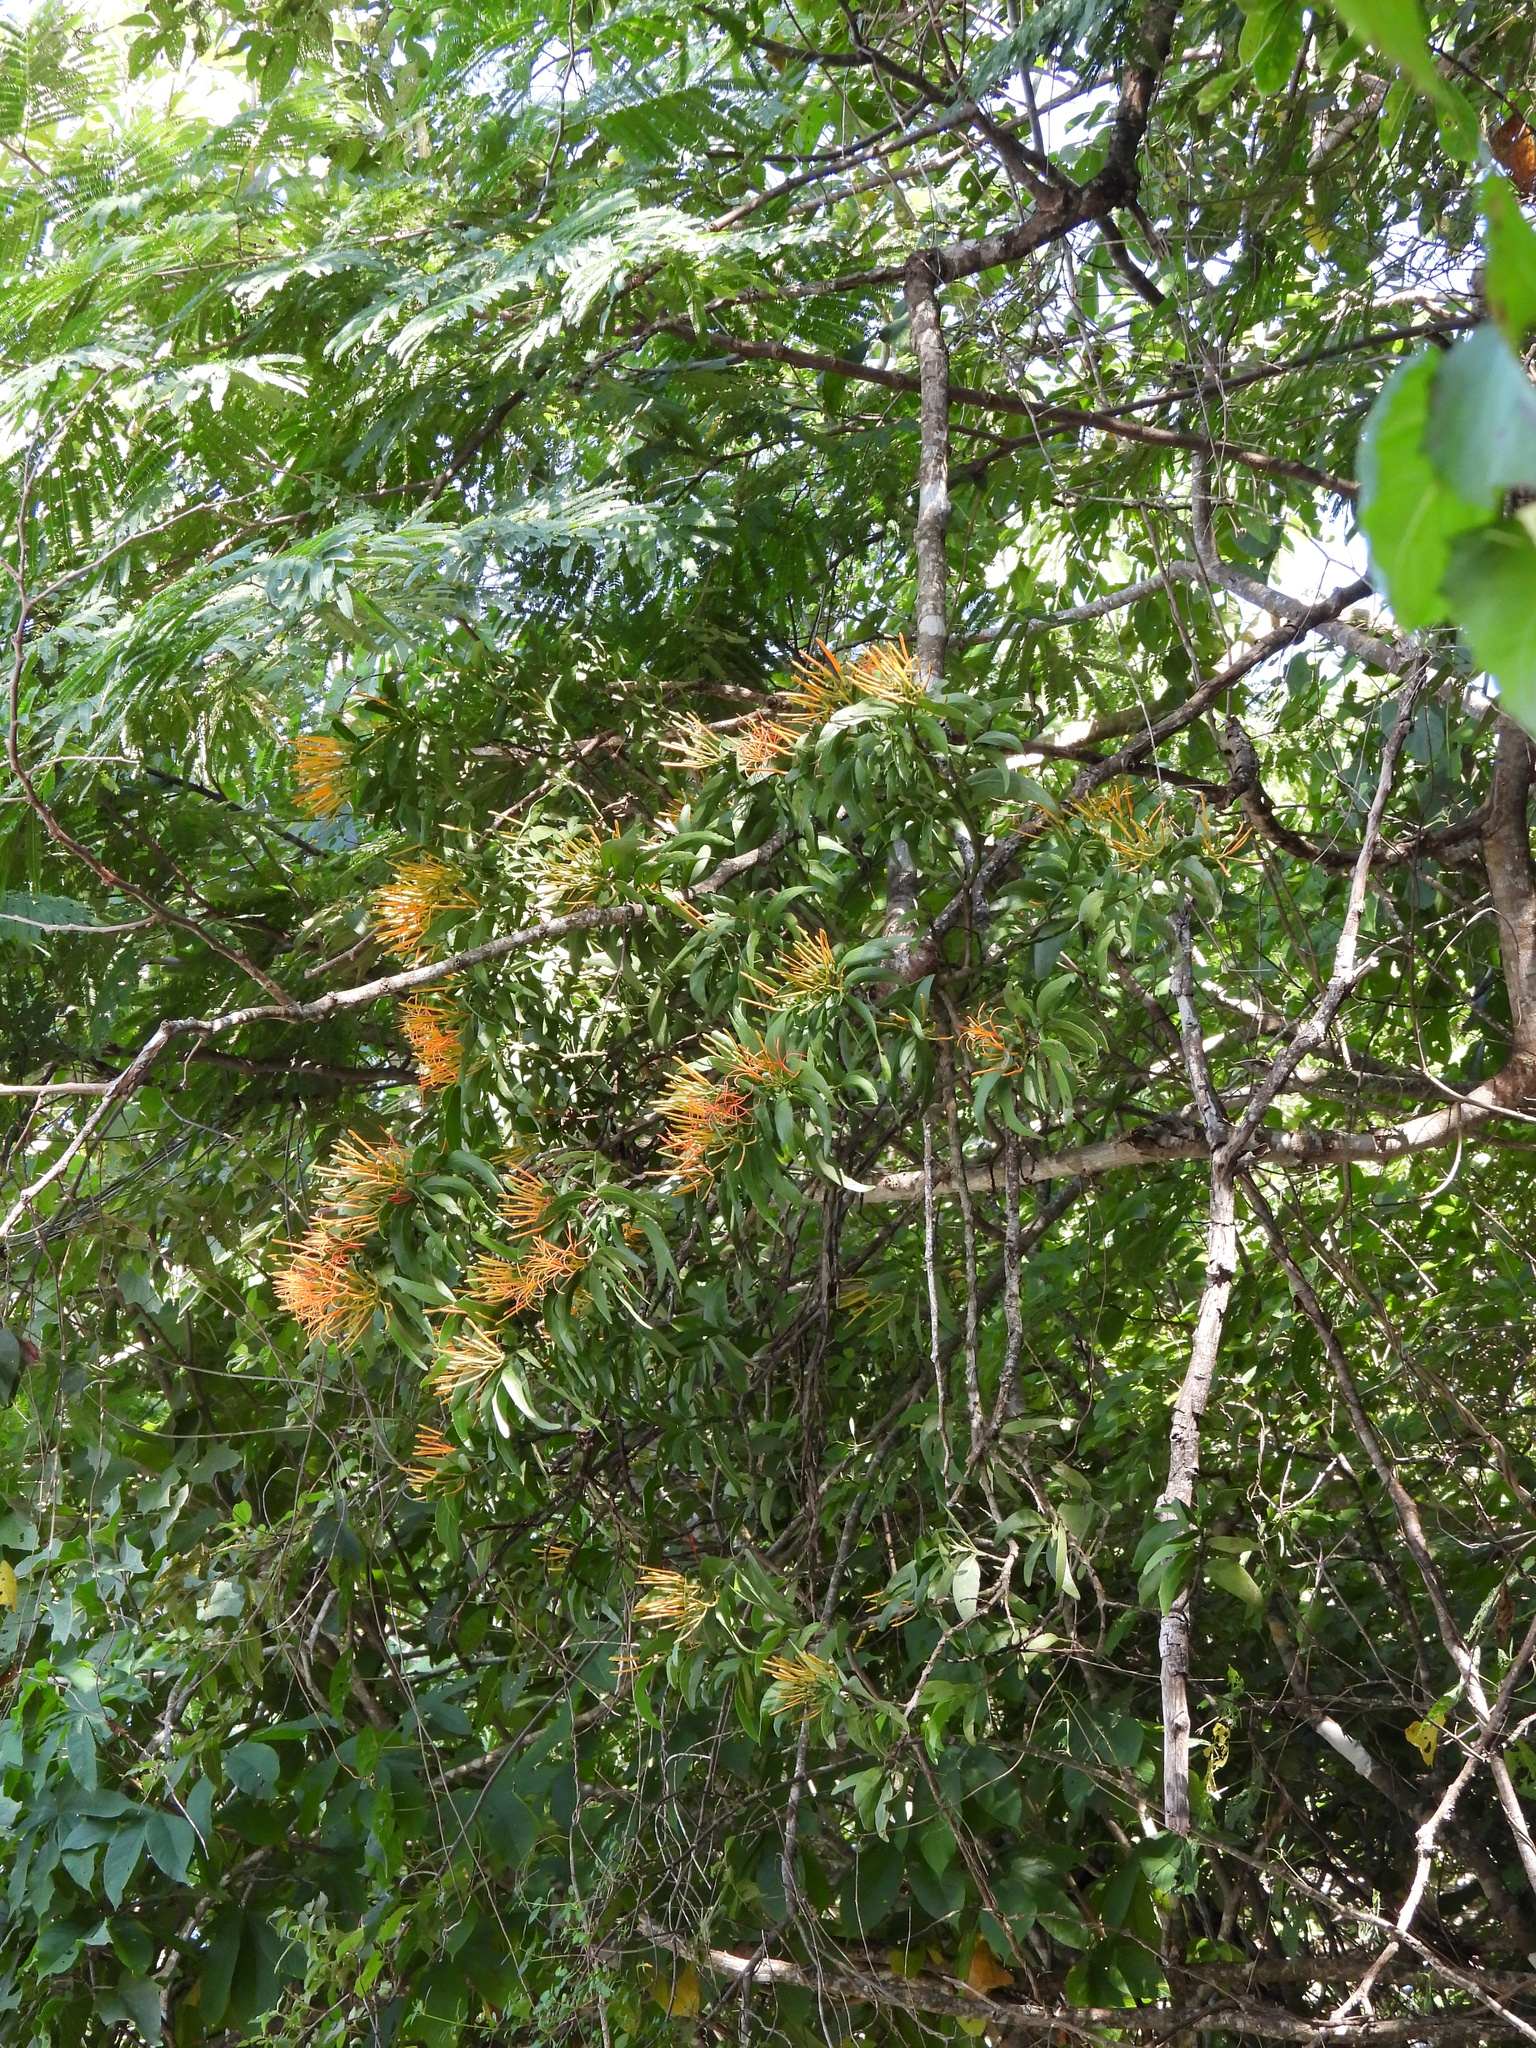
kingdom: Plantae
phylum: Tracheophyta
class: Magnoliopsida
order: Santalales
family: Loranthaceae
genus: Psittacanthus
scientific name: Psittacanthus calyculatus
